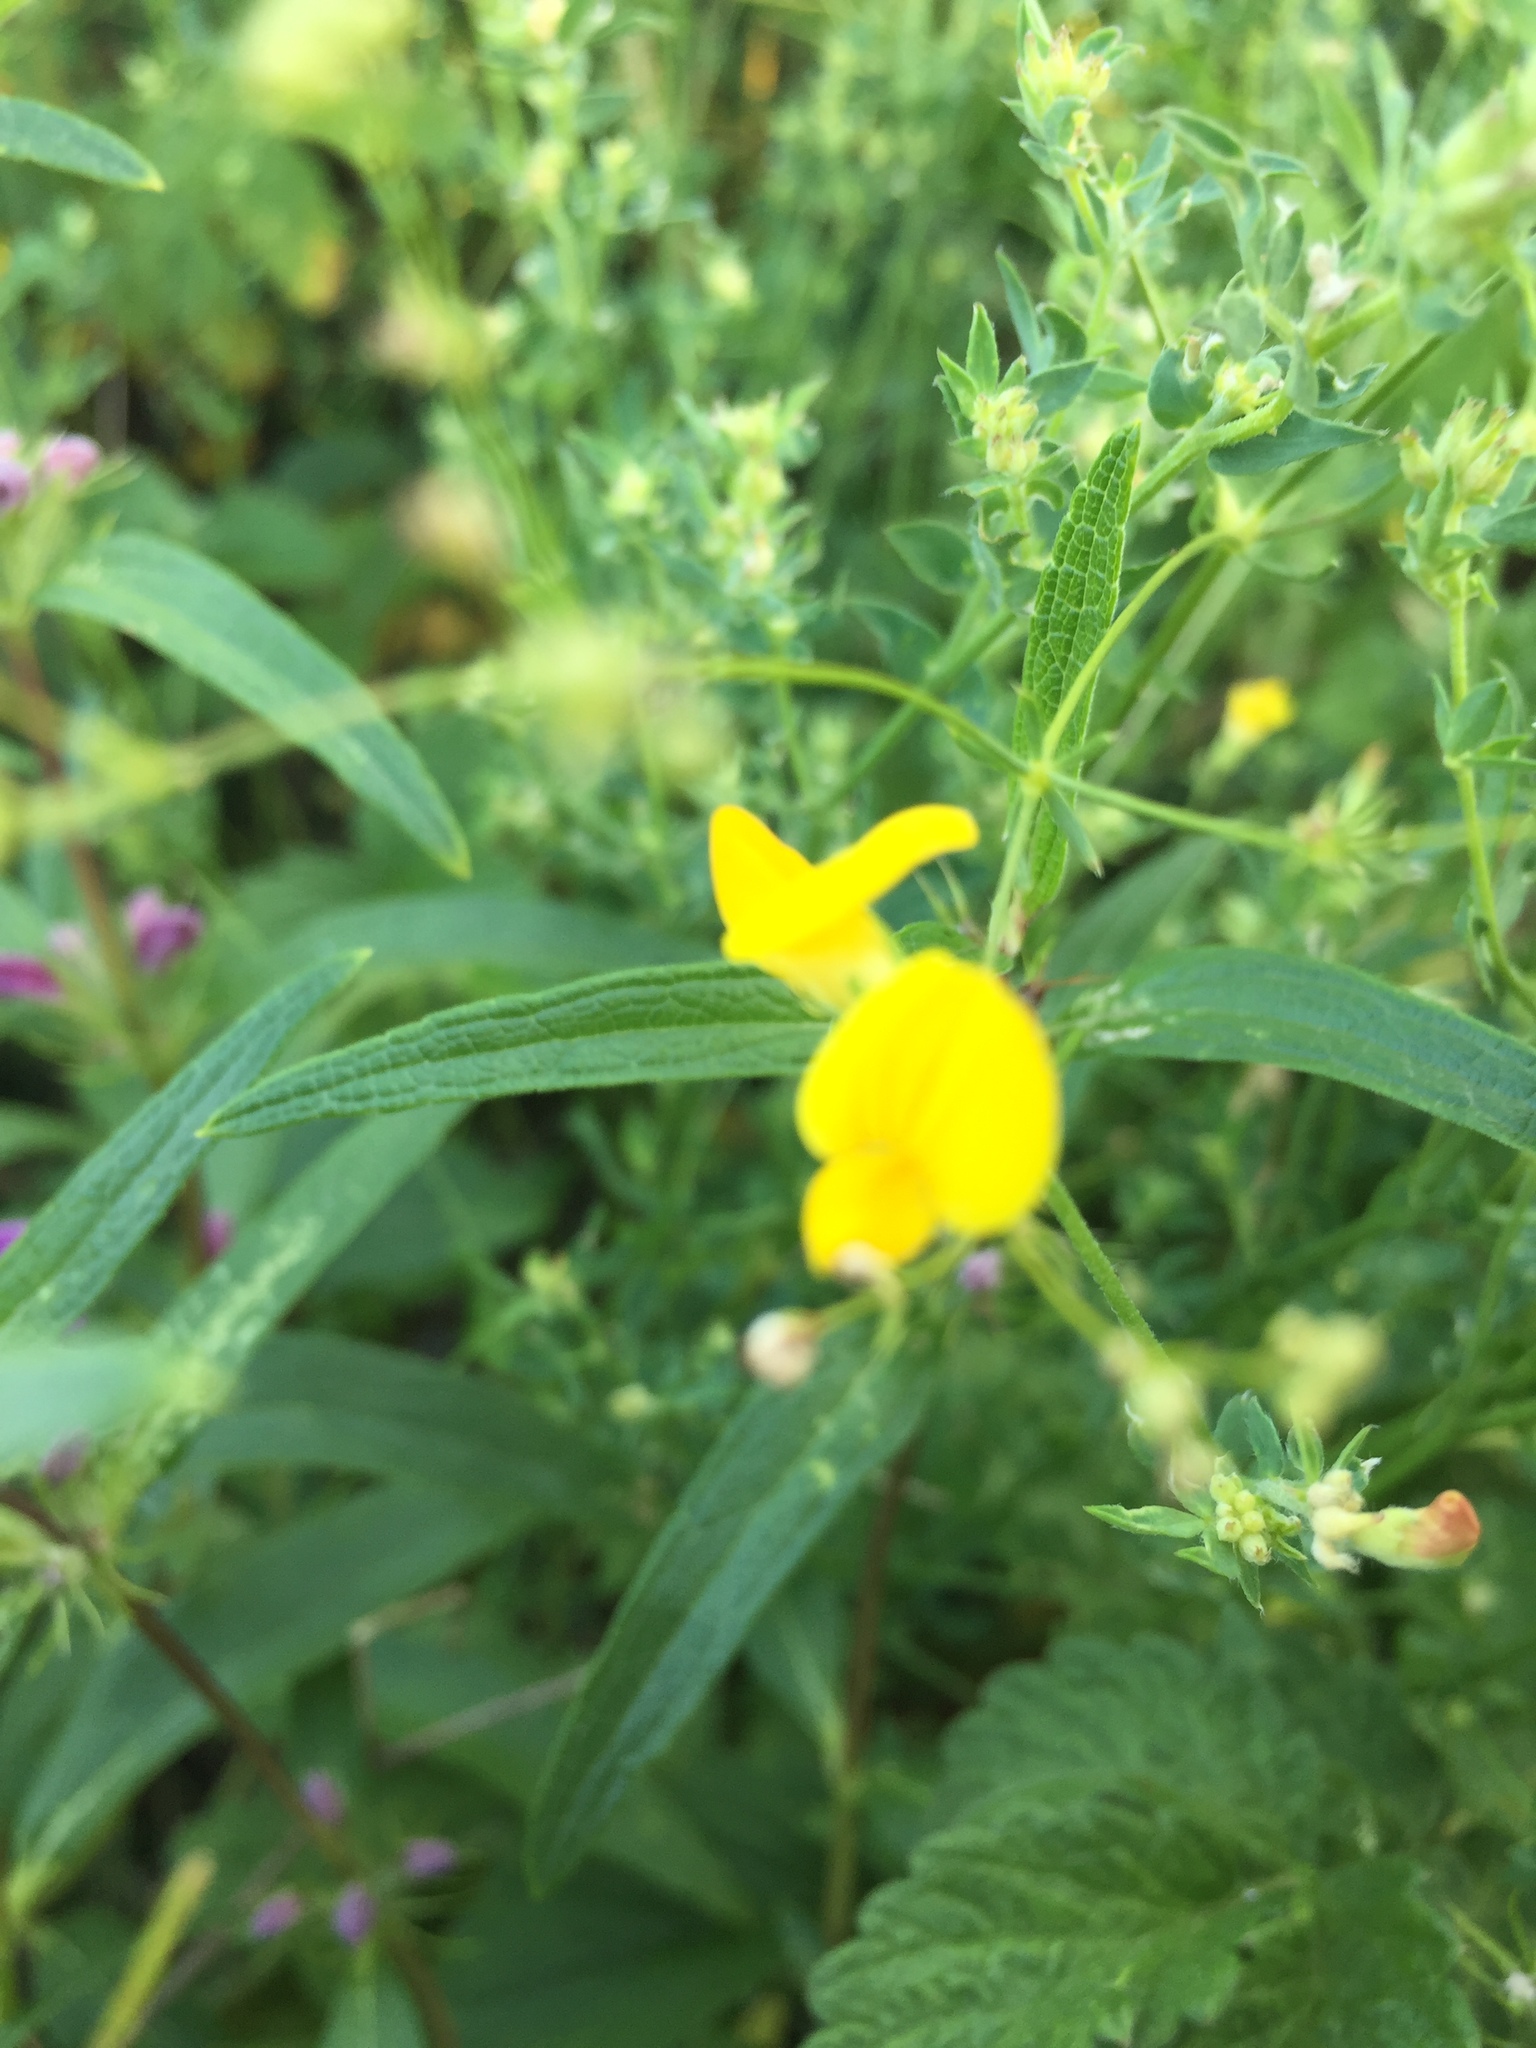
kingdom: Plantae
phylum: Tracheophyta
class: Magnoliopsida
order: Fabales
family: Fabaceae
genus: Lathyrus
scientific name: Lathyrus pratensis
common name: Meadow vetchling
